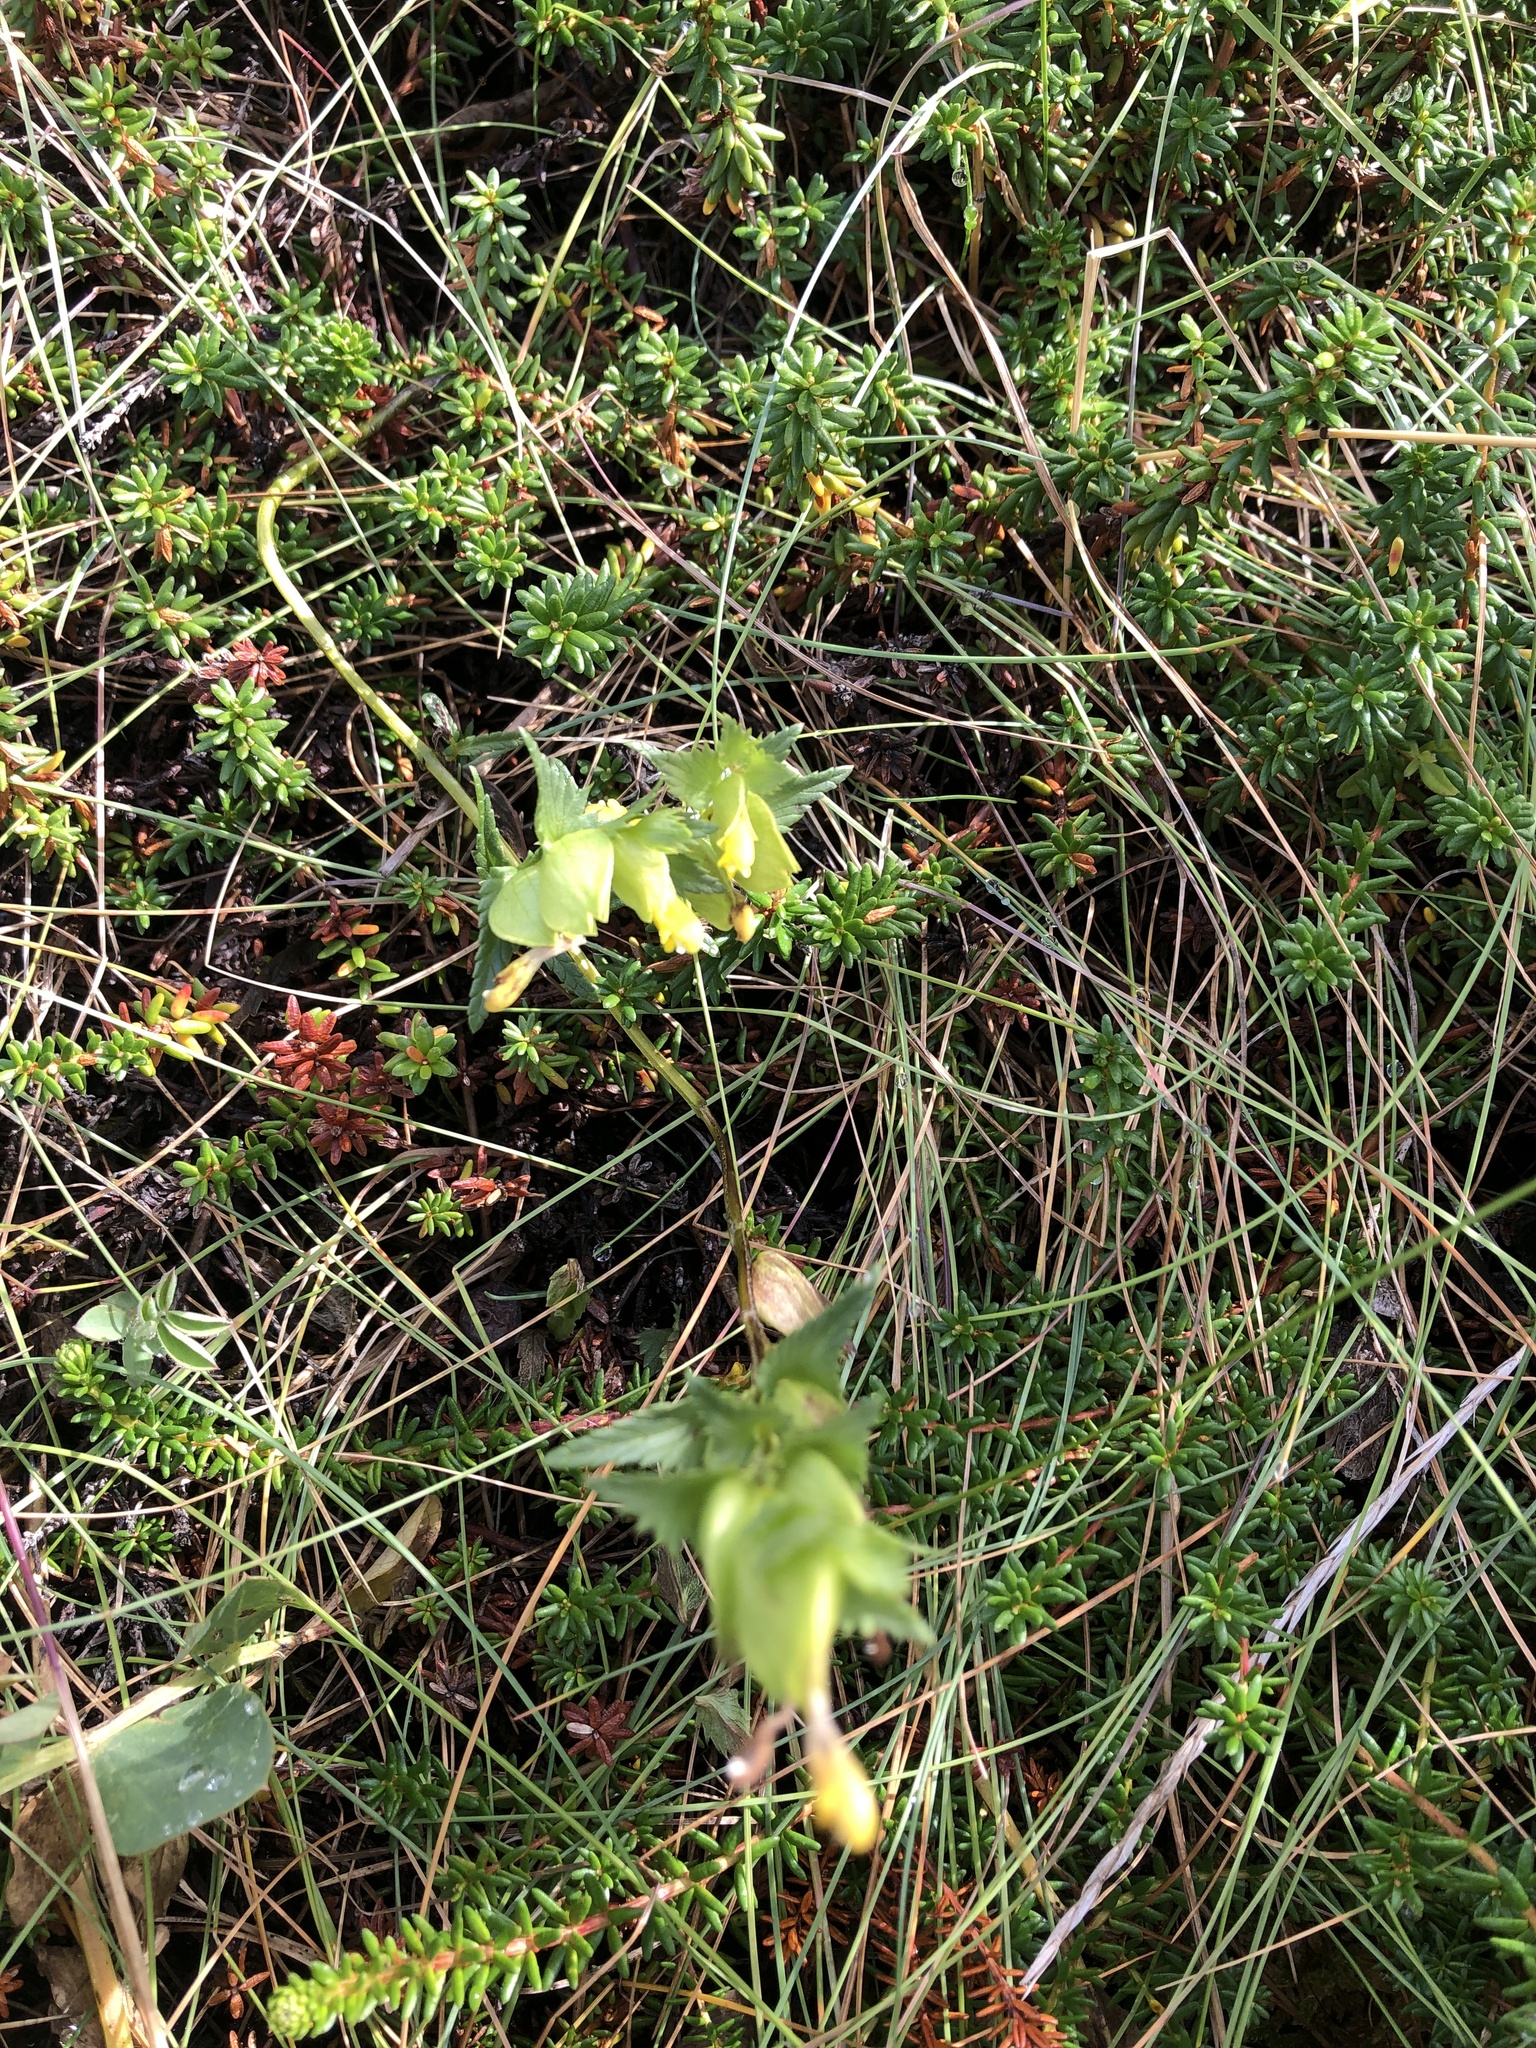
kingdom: Plantae
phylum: Tracheophyta
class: Magnoliopsida
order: Lamiales
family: Orobanchaceae
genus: Rhinanthus
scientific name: Rhinanthus minor
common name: Yellow-rattle
